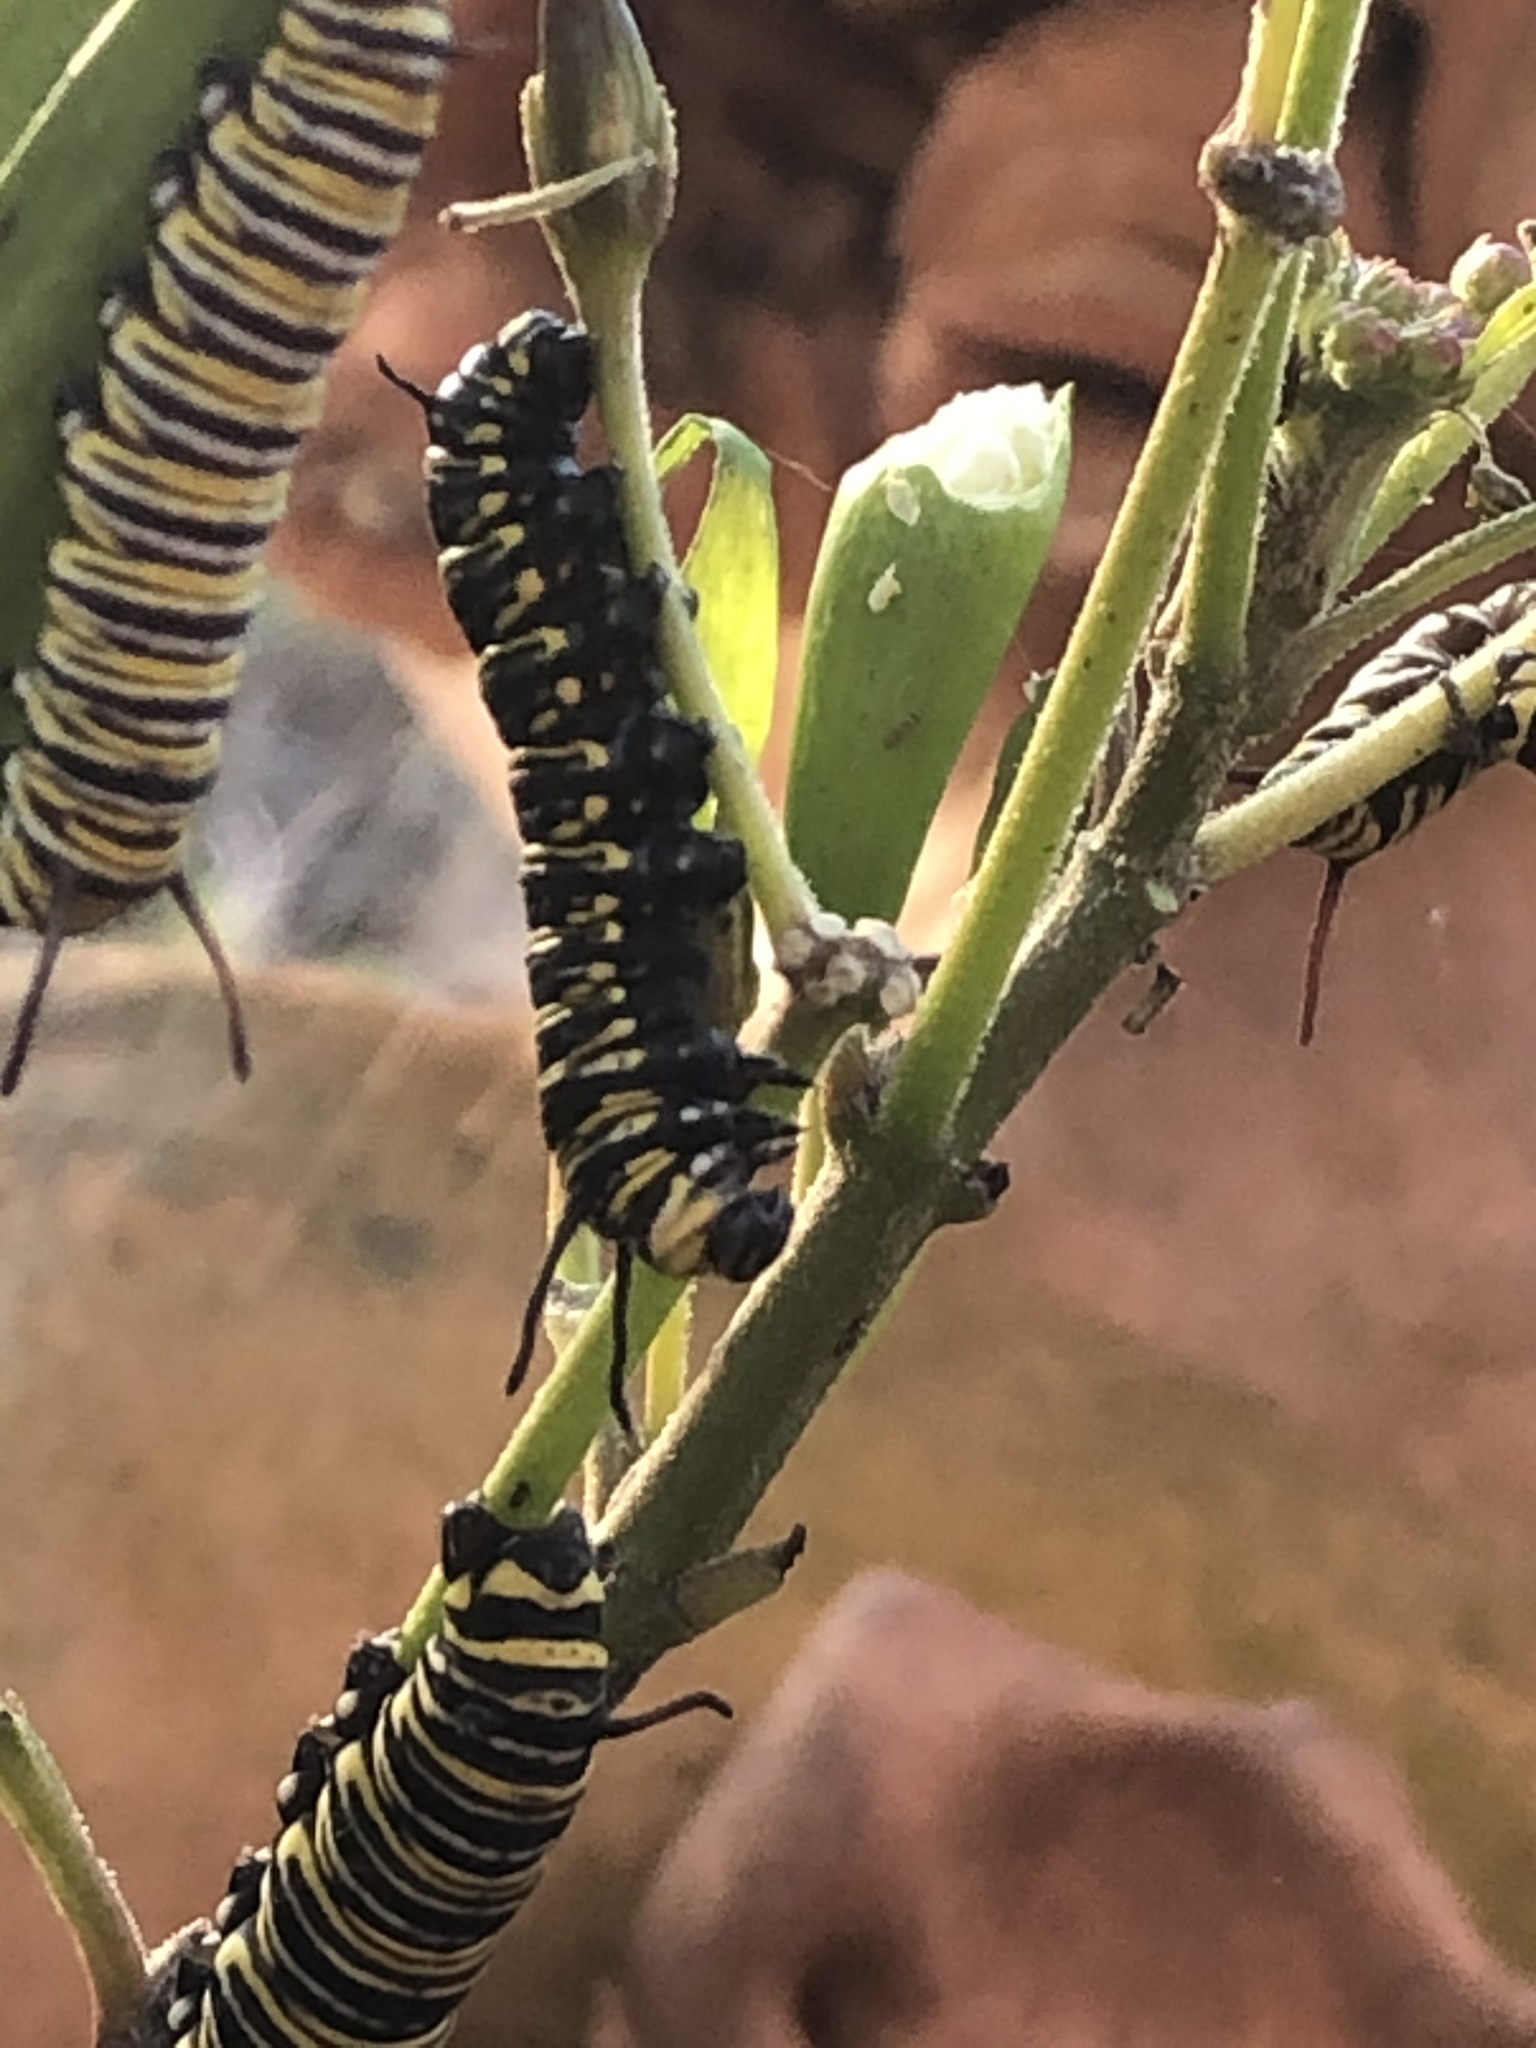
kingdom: Animalia
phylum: Arthropoda
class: Insecta
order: Lepidoptera
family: Nymphalidae
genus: Danaus
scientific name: Danaus plexippus
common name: Monarch
